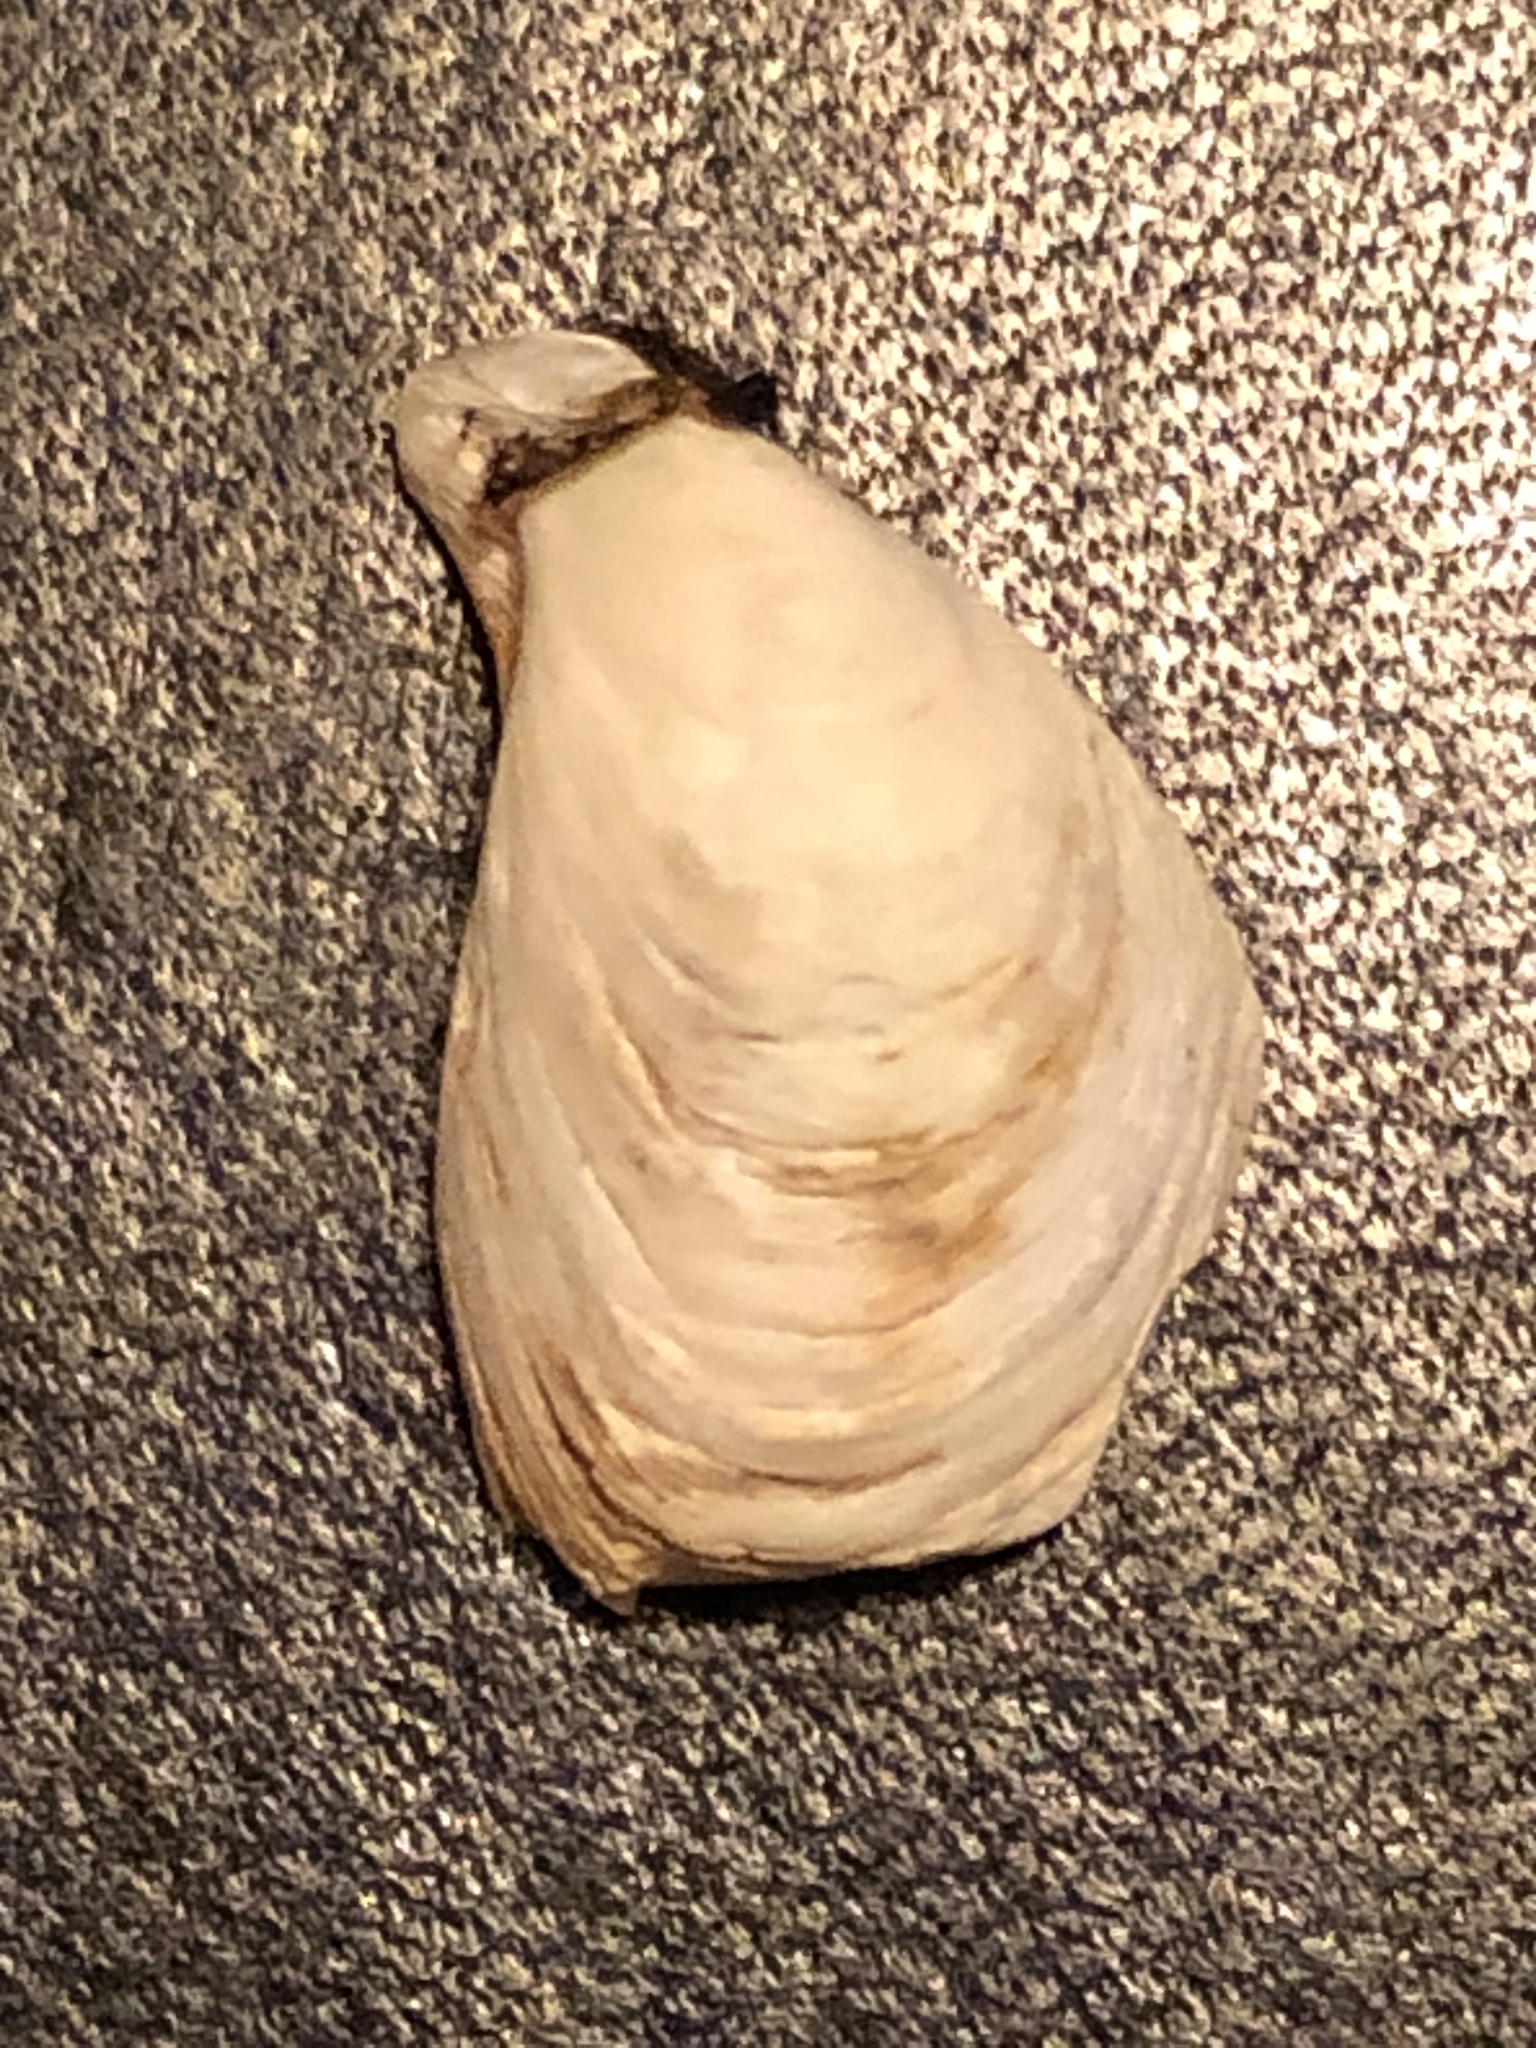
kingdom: Animalia
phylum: Mollusca
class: Bivalvia
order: Myida
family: Dreissenidae
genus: Dreissena
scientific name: Dreissena bugensis
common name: Quagga mussel
